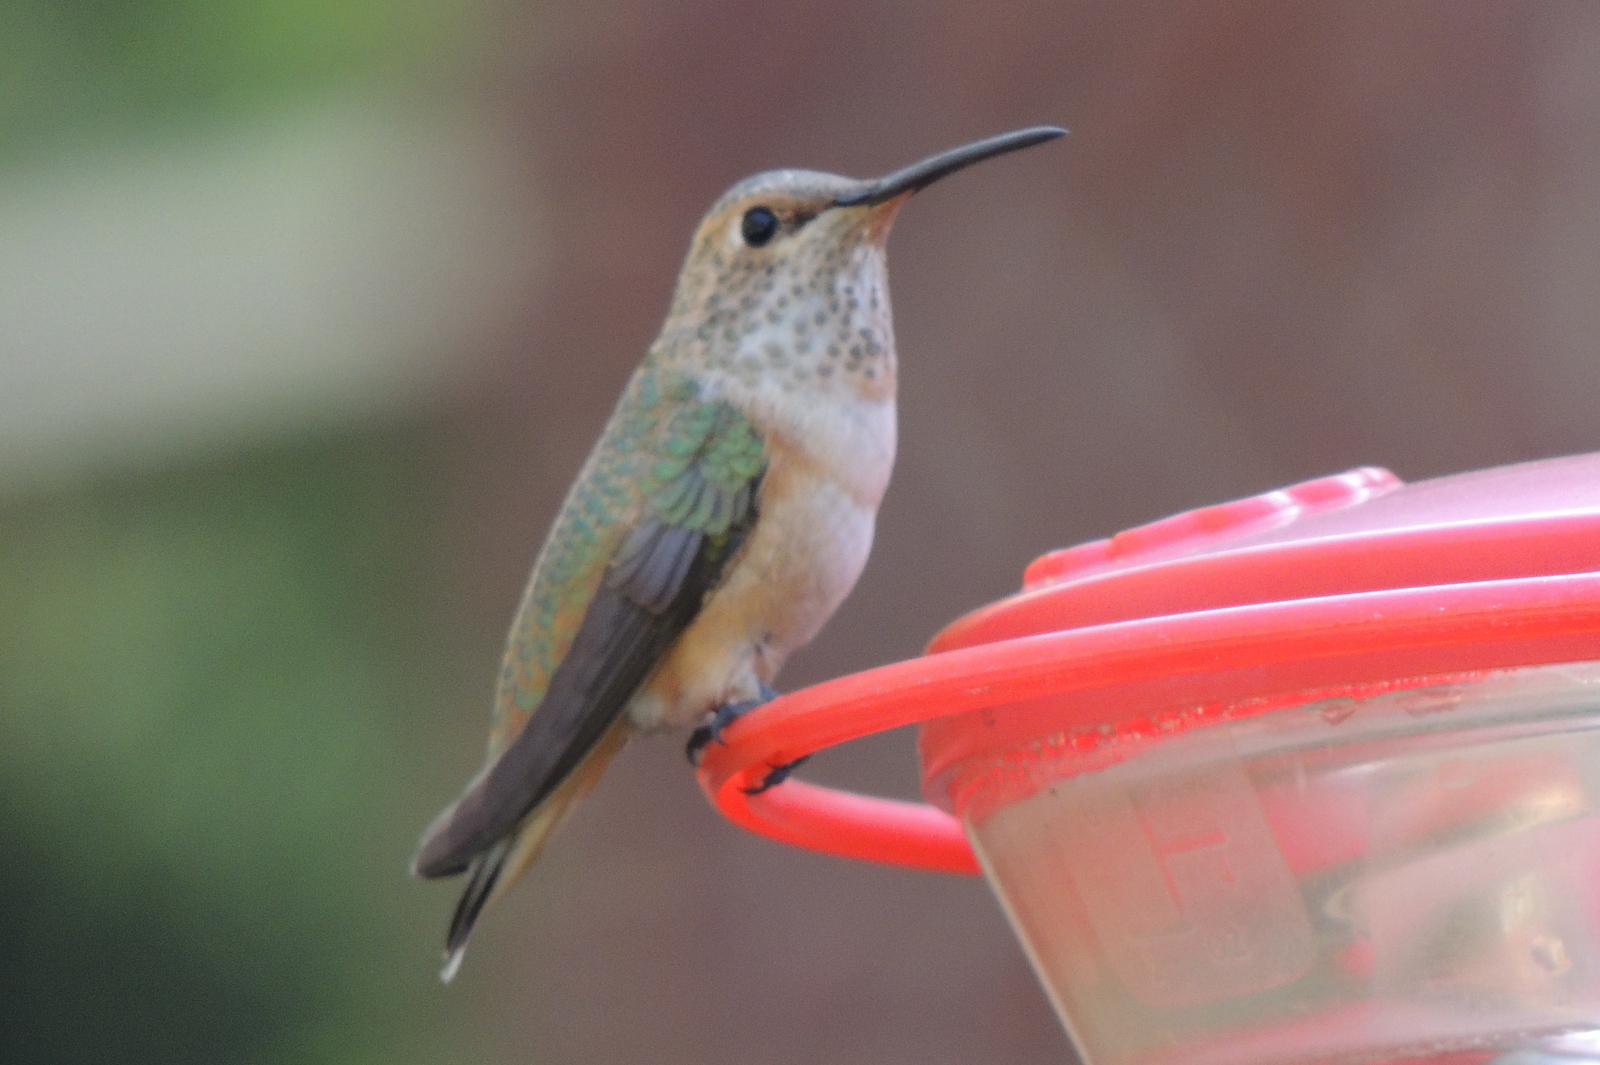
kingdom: Animalia
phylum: Chordata
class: Aves
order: Apodiformes
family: Trochilidae
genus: Selasphorus
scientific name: Selasphorus
